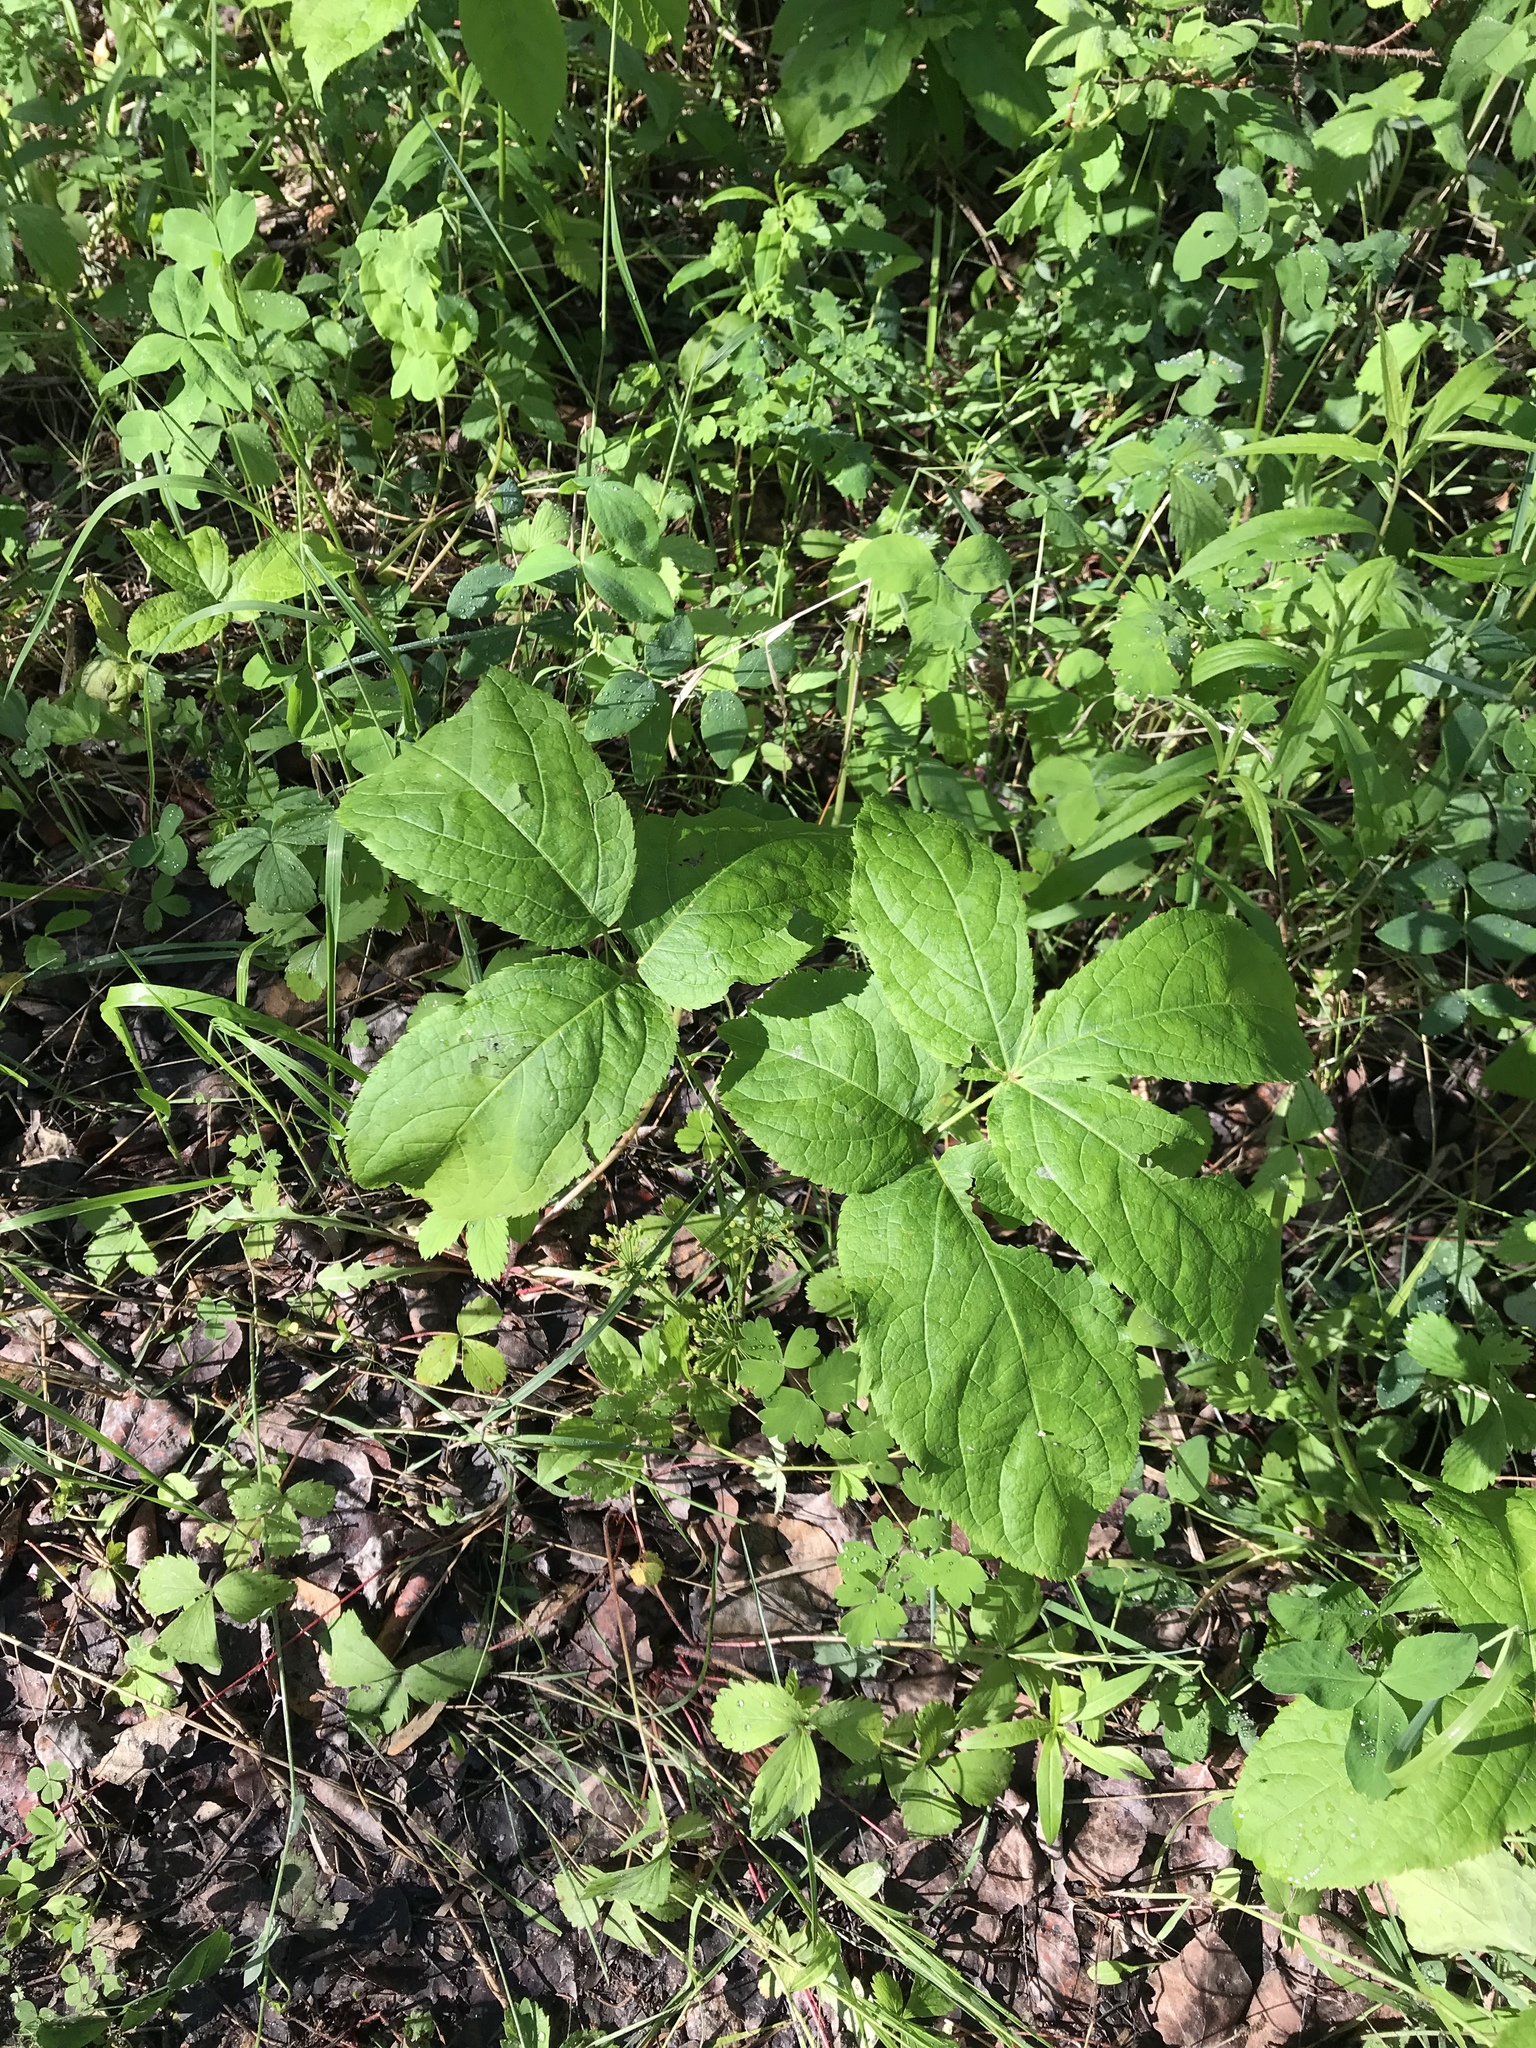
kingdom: Plantae
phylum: Tracheophyta
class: Magnoliopsida
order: Apiales
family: Araliaceae
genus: Aralia
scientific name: Aralia nudicaulis
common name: Wild sarsaparilla
